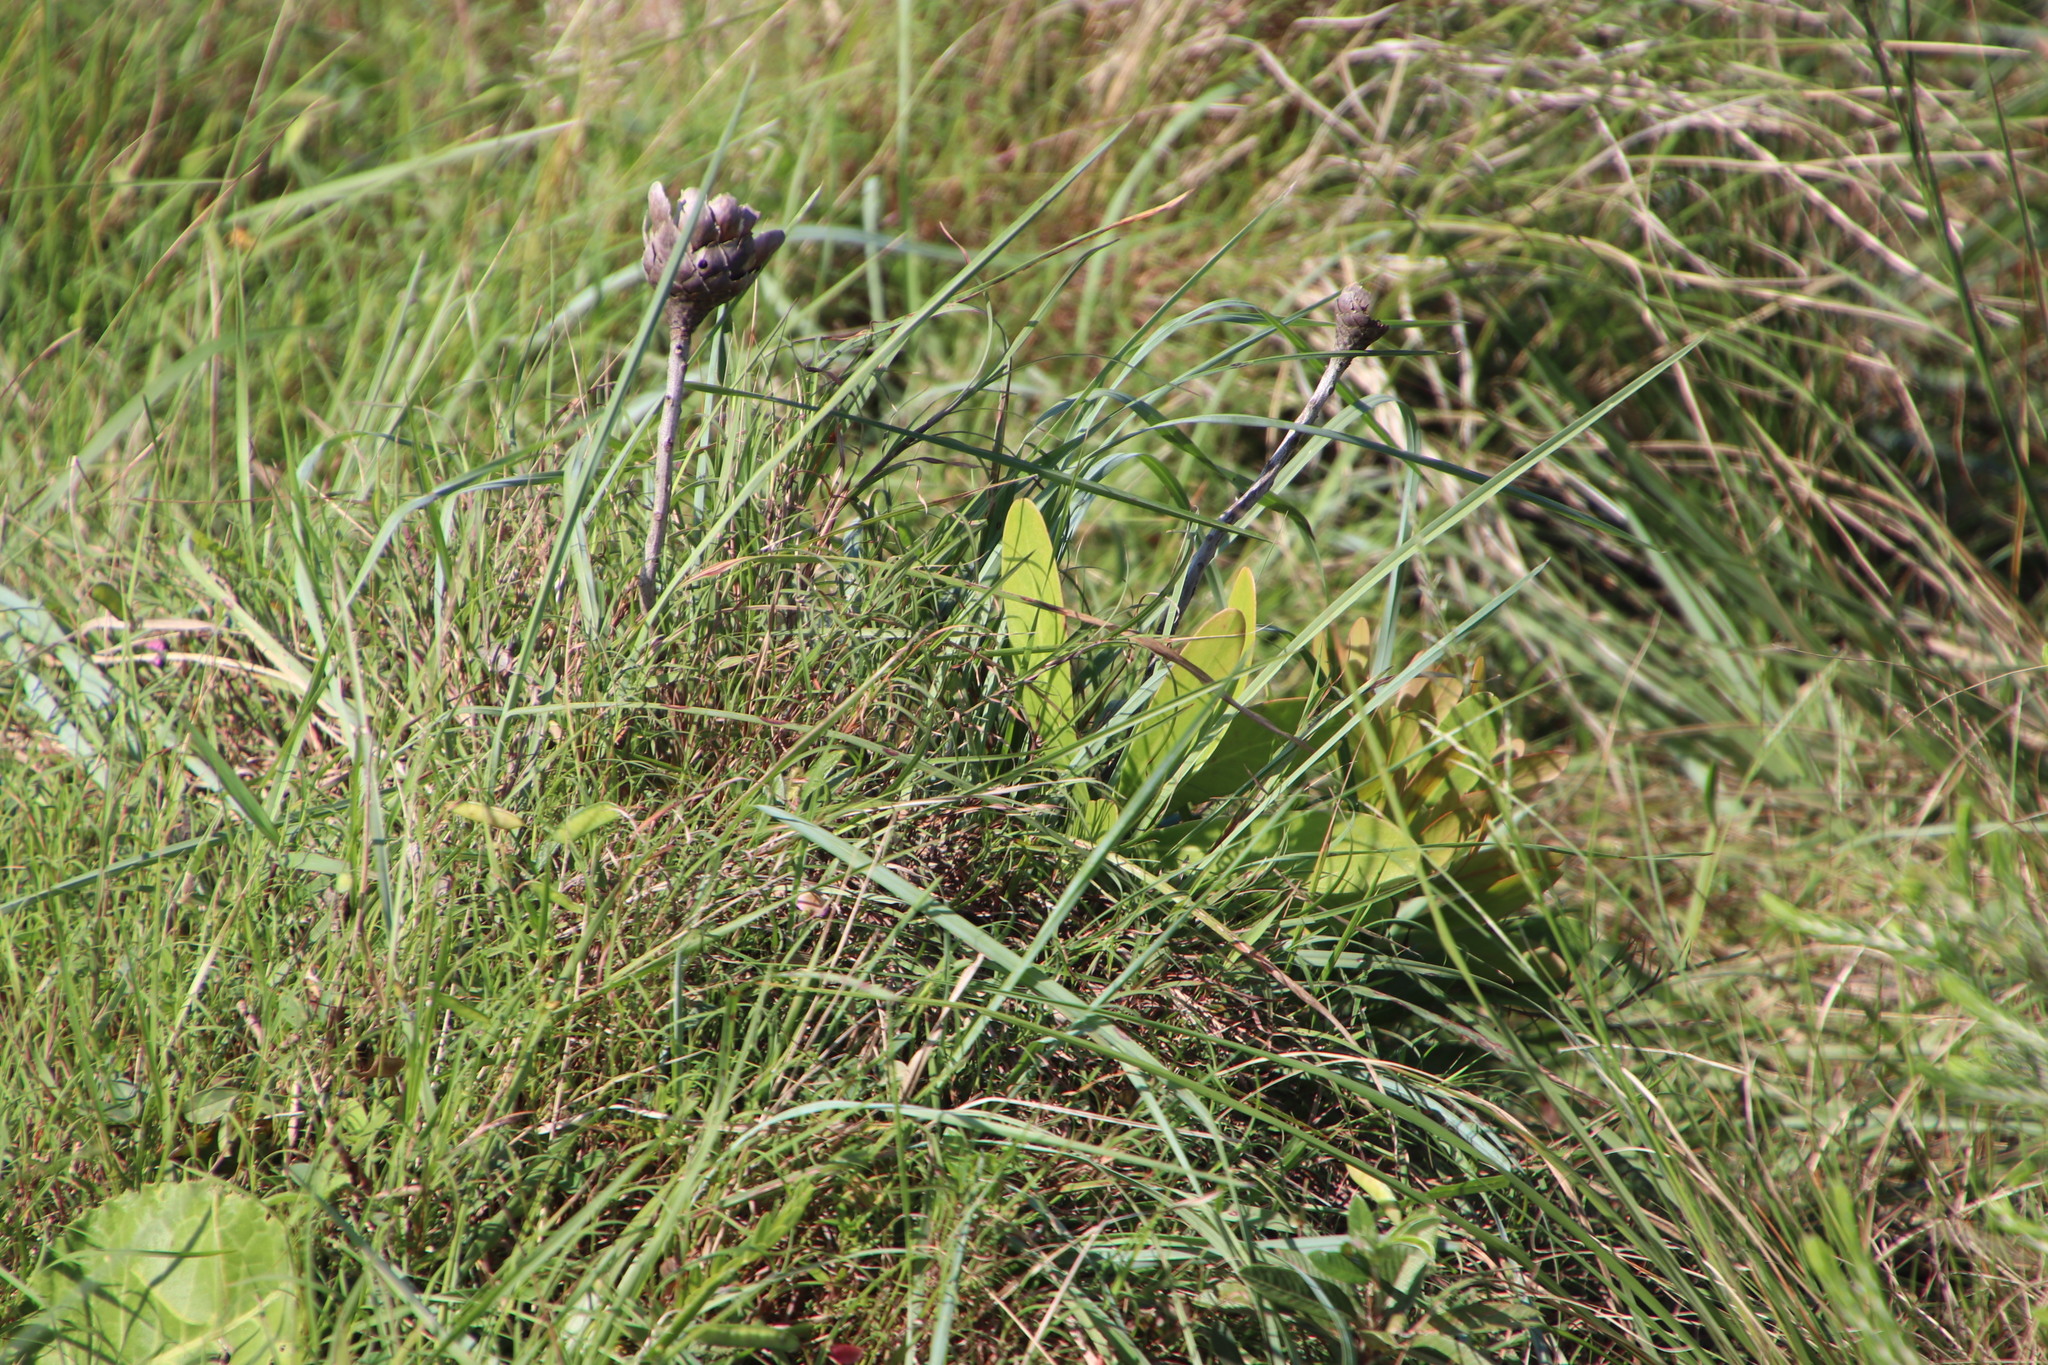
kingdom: Plantae
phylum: Tracheophyta
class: Magnoliopsida
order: Proteales
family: Proteaceae
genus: Protea
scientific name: Protea simplex
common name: Dwarf grassveld sugarbush
